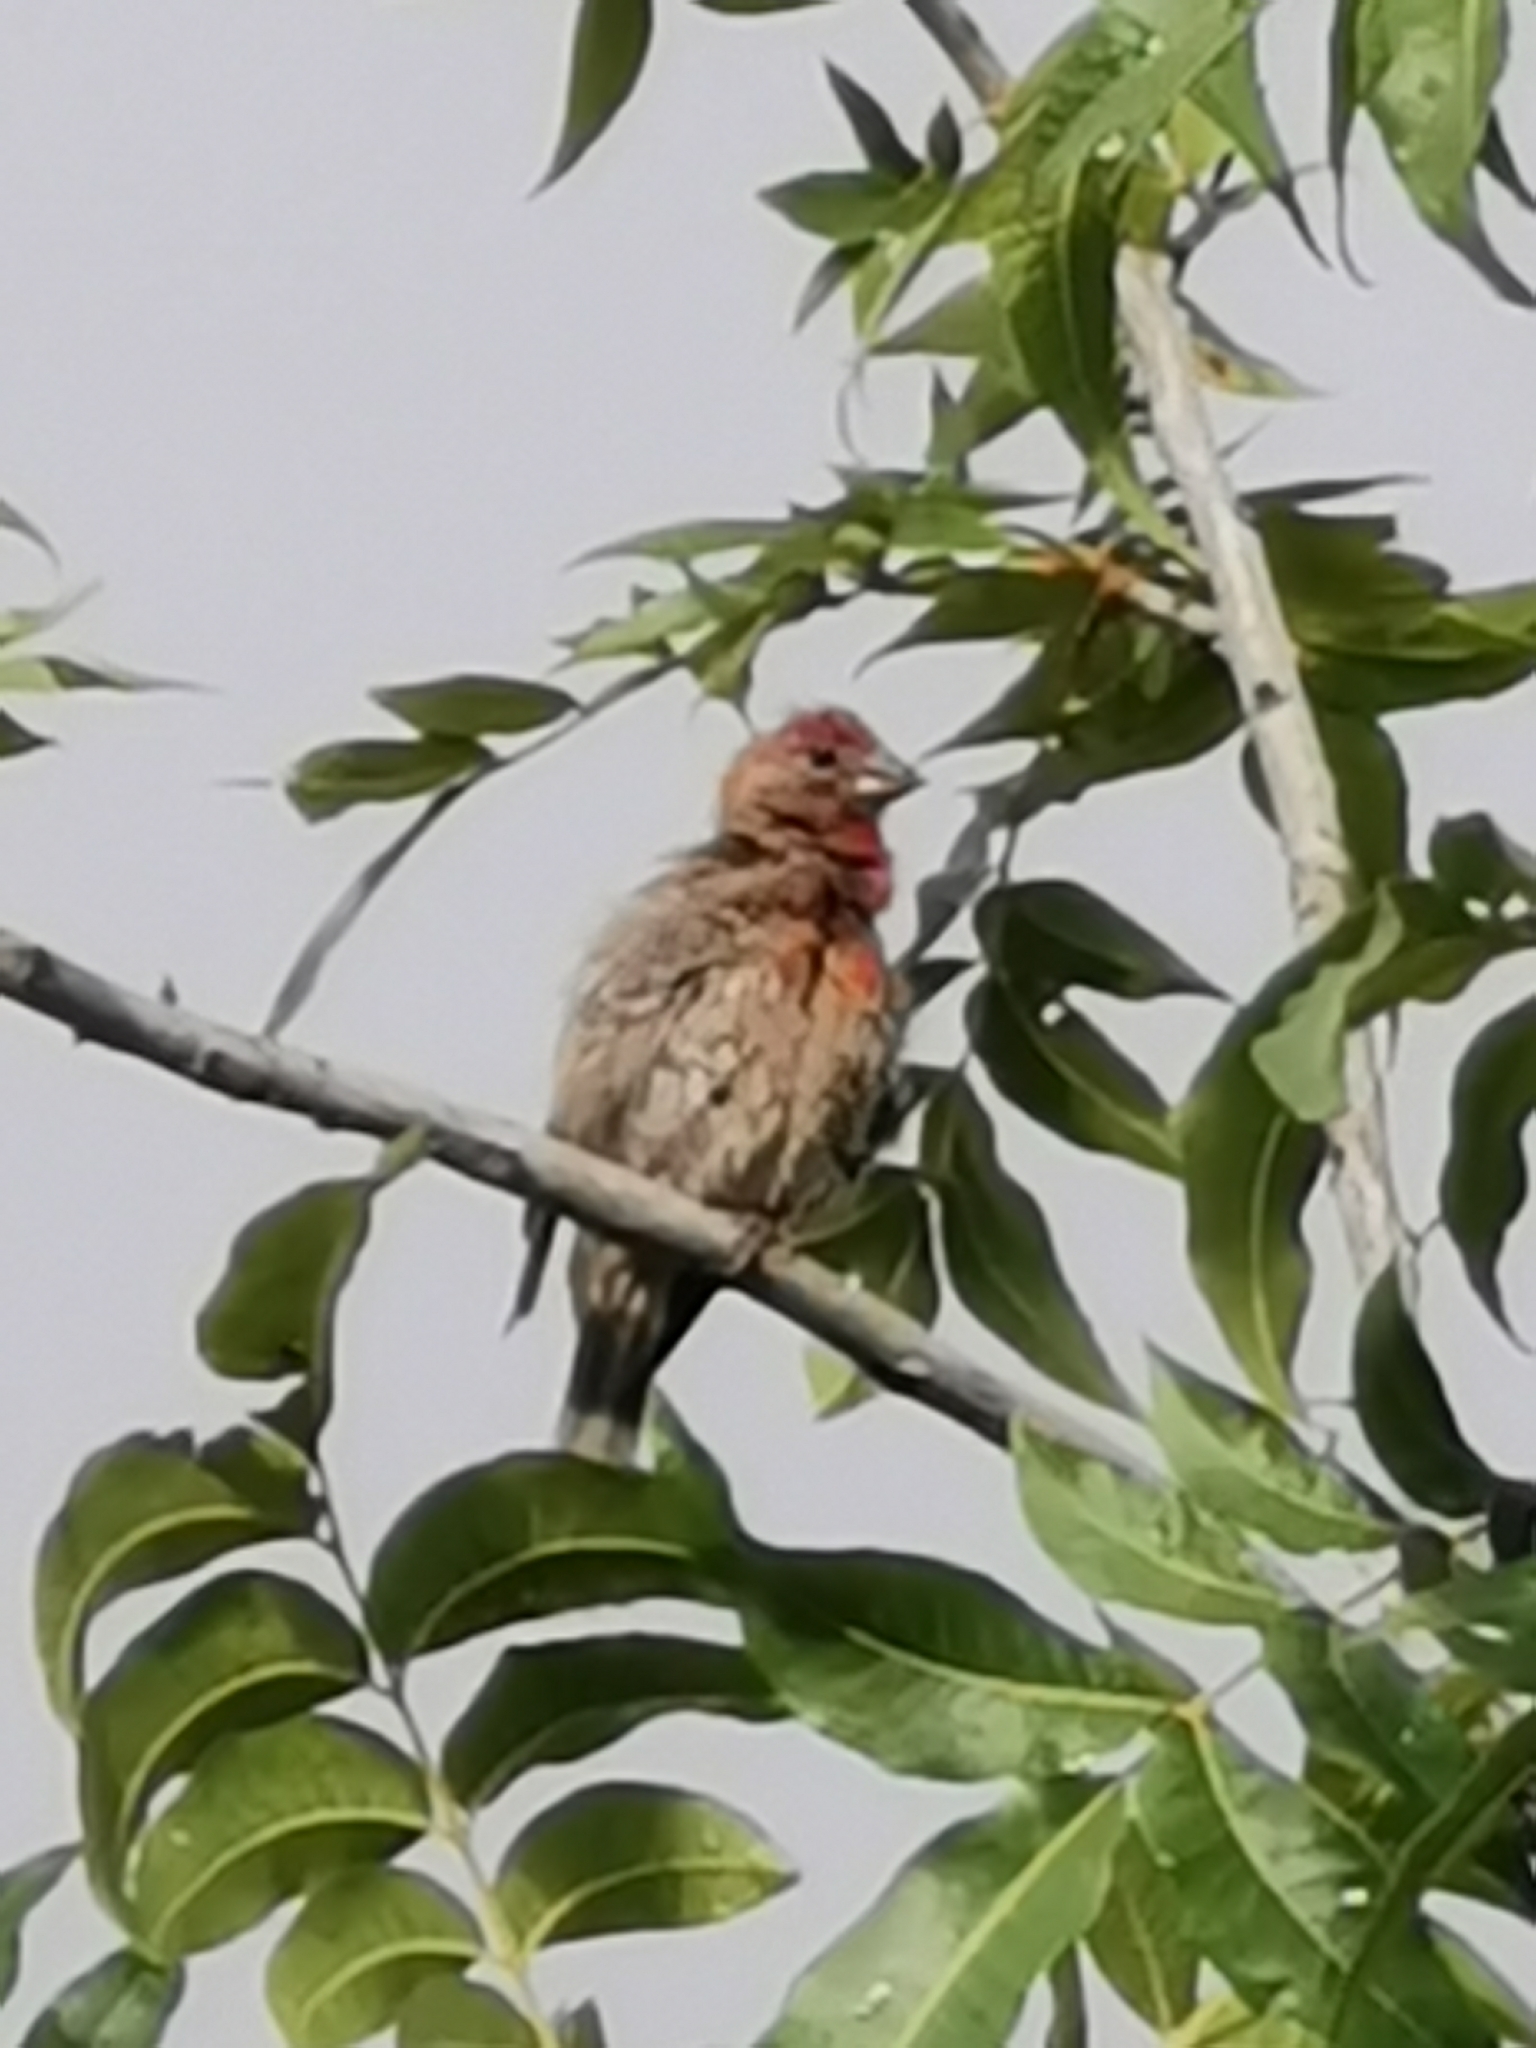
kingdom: Animalia
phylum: Chordata
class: Aves
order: Passeriformes
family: Fringillidae
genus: Haemorhous
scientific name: Haemorhous mexicanus
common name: House finch
